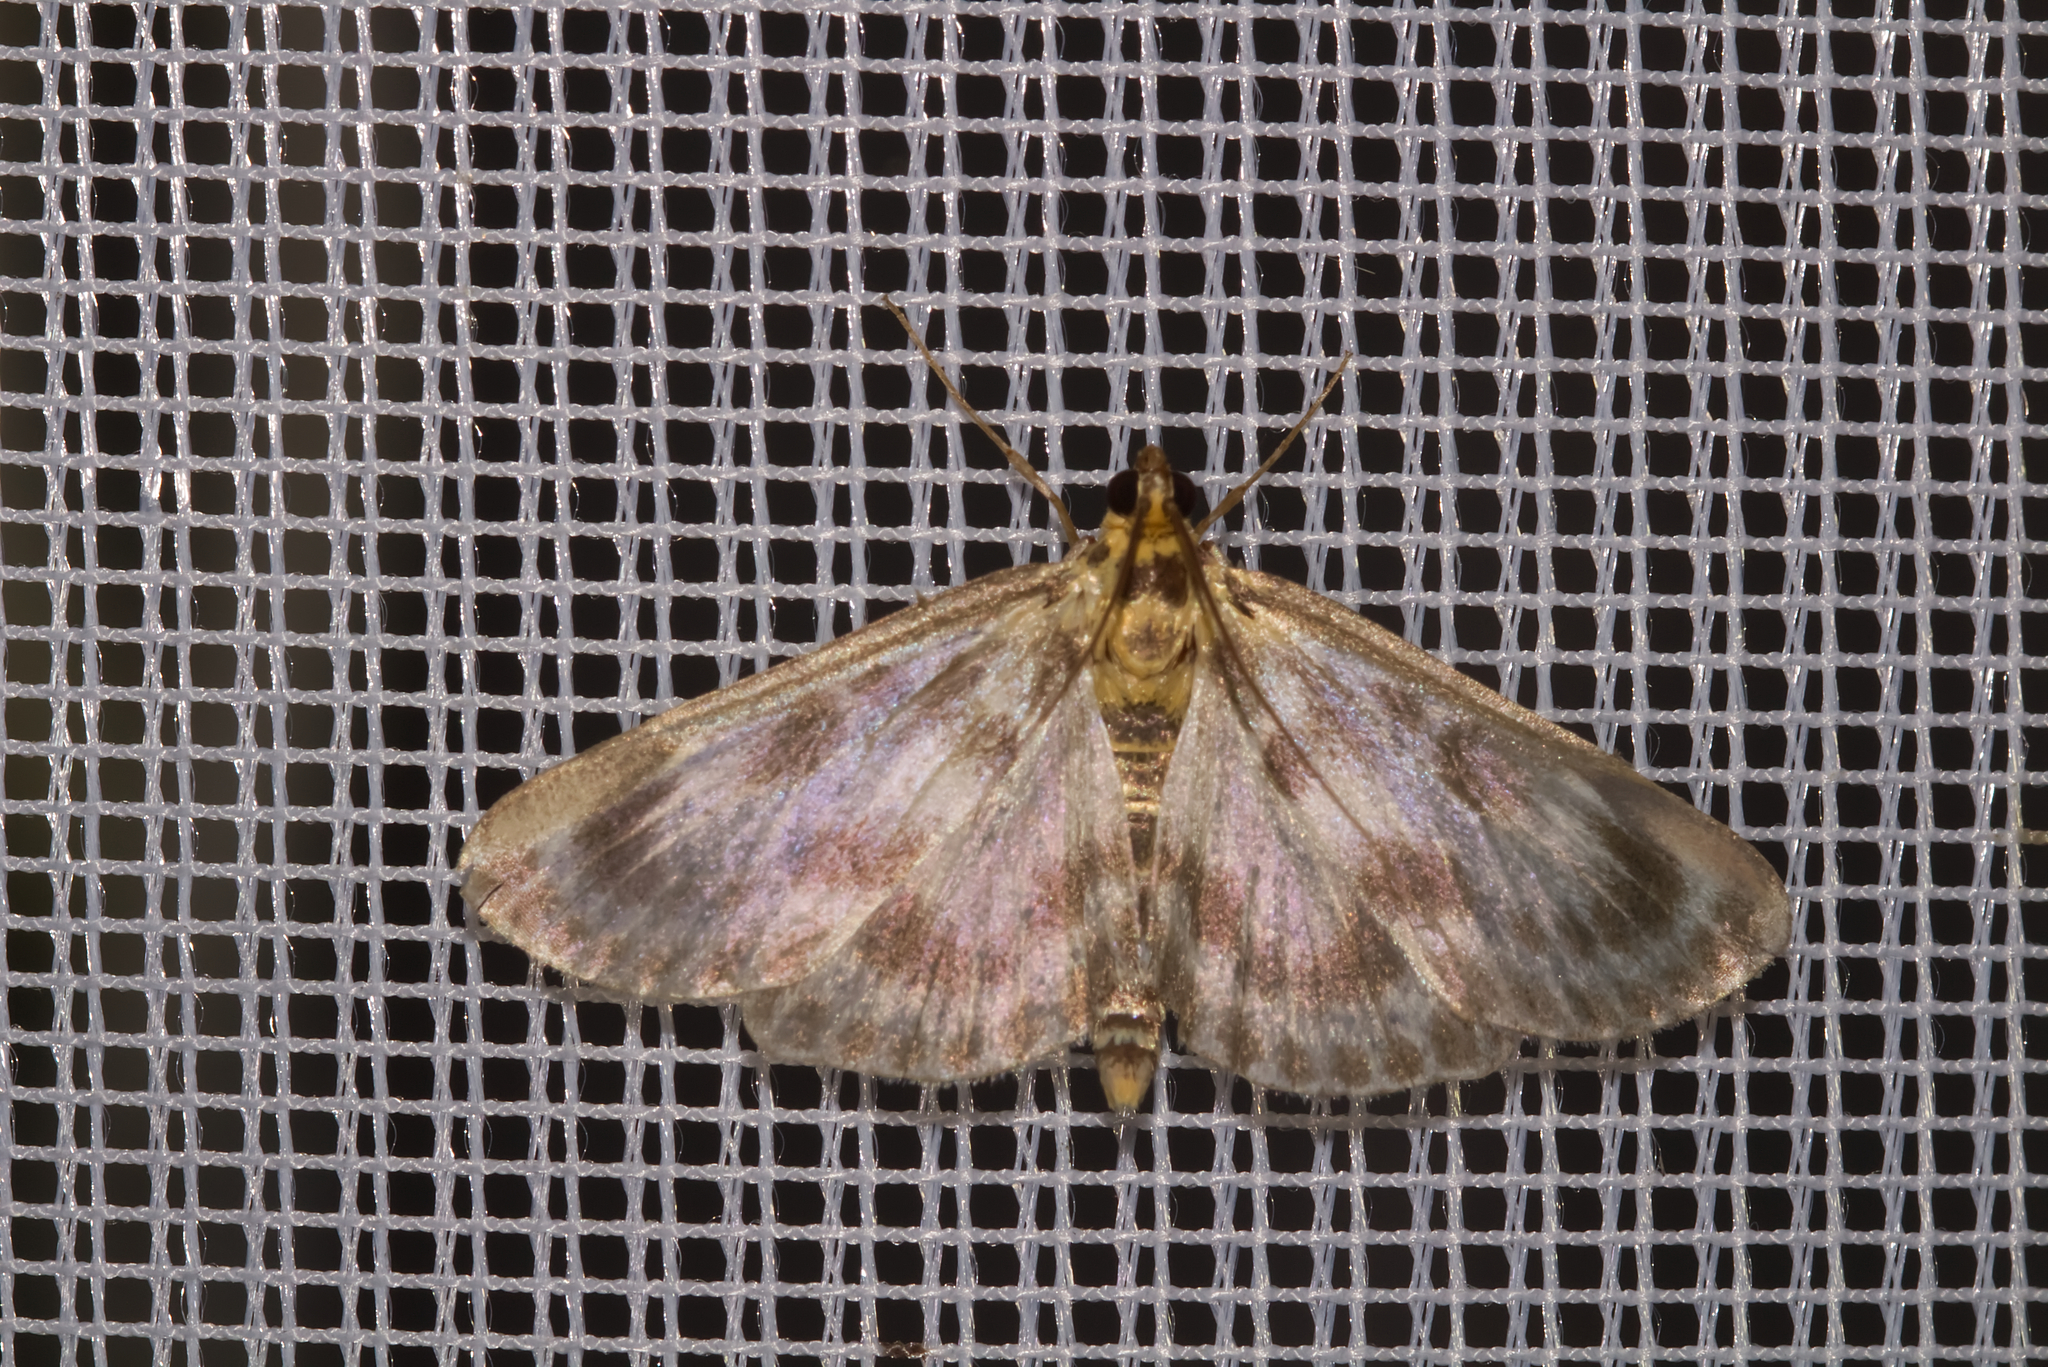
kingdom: Animalia
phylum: Arthropoda
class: Insecta
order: Lepidoptera
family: Crambidae
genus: Anania
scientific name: Anania hortulata
